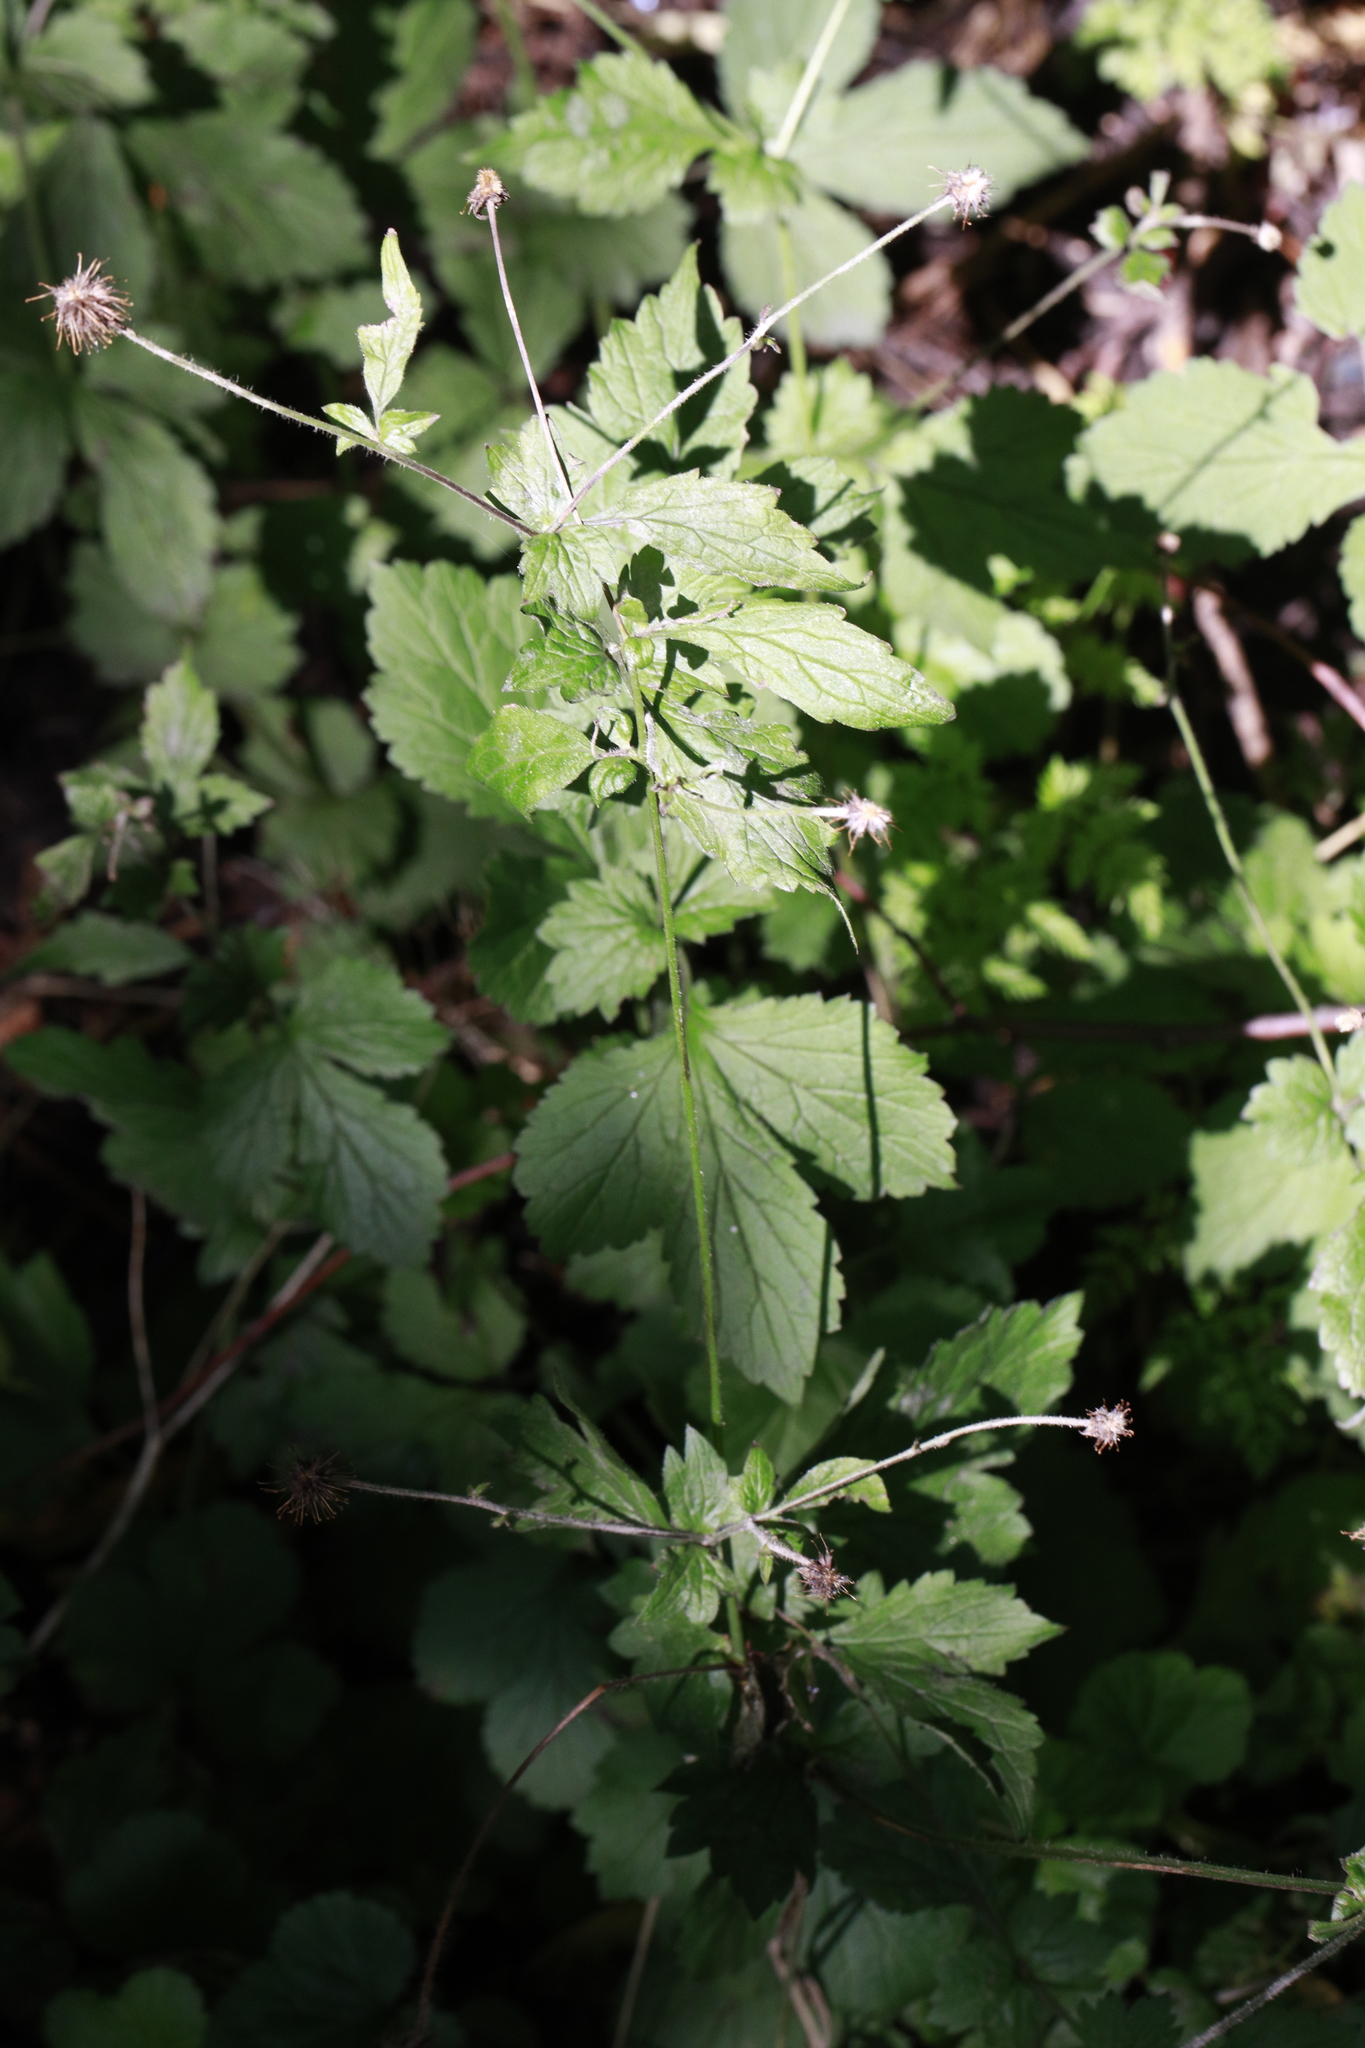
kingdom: Plantae
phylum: Tracheophyta
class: Magnoliopsida
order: Rosales
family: Rosaceae
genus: Geum
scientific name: Geum urbanum
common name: Wood avens
